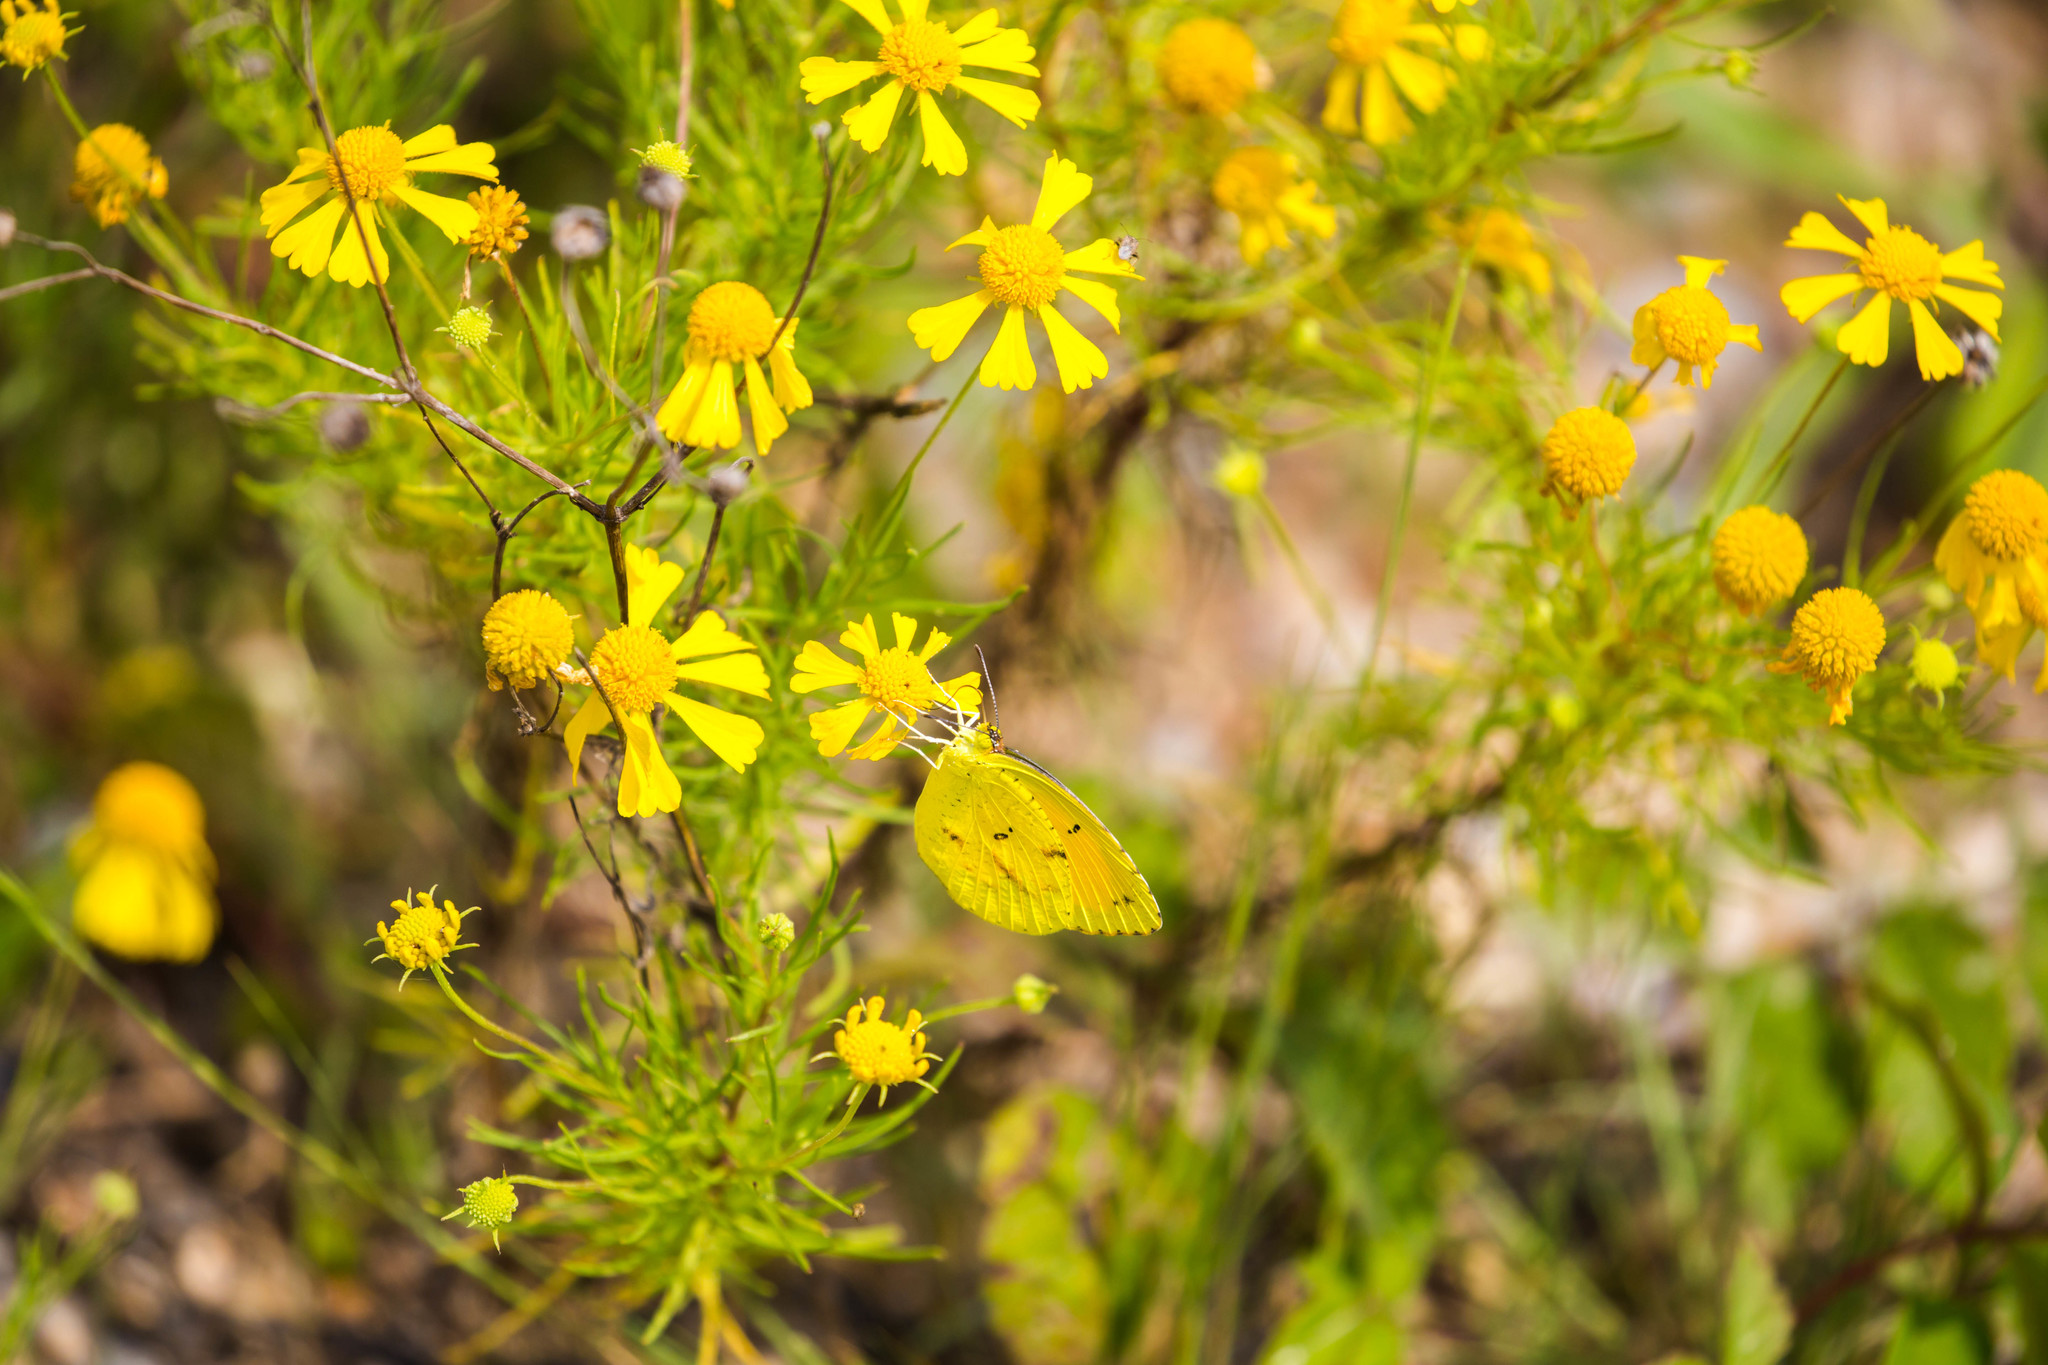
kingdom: Animalia
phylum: Arthropoda
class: Insecta
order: Lepidoptera
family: Pieridae
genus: Abaeis
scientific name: Abaeis nicippe
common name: Sleepy orange
